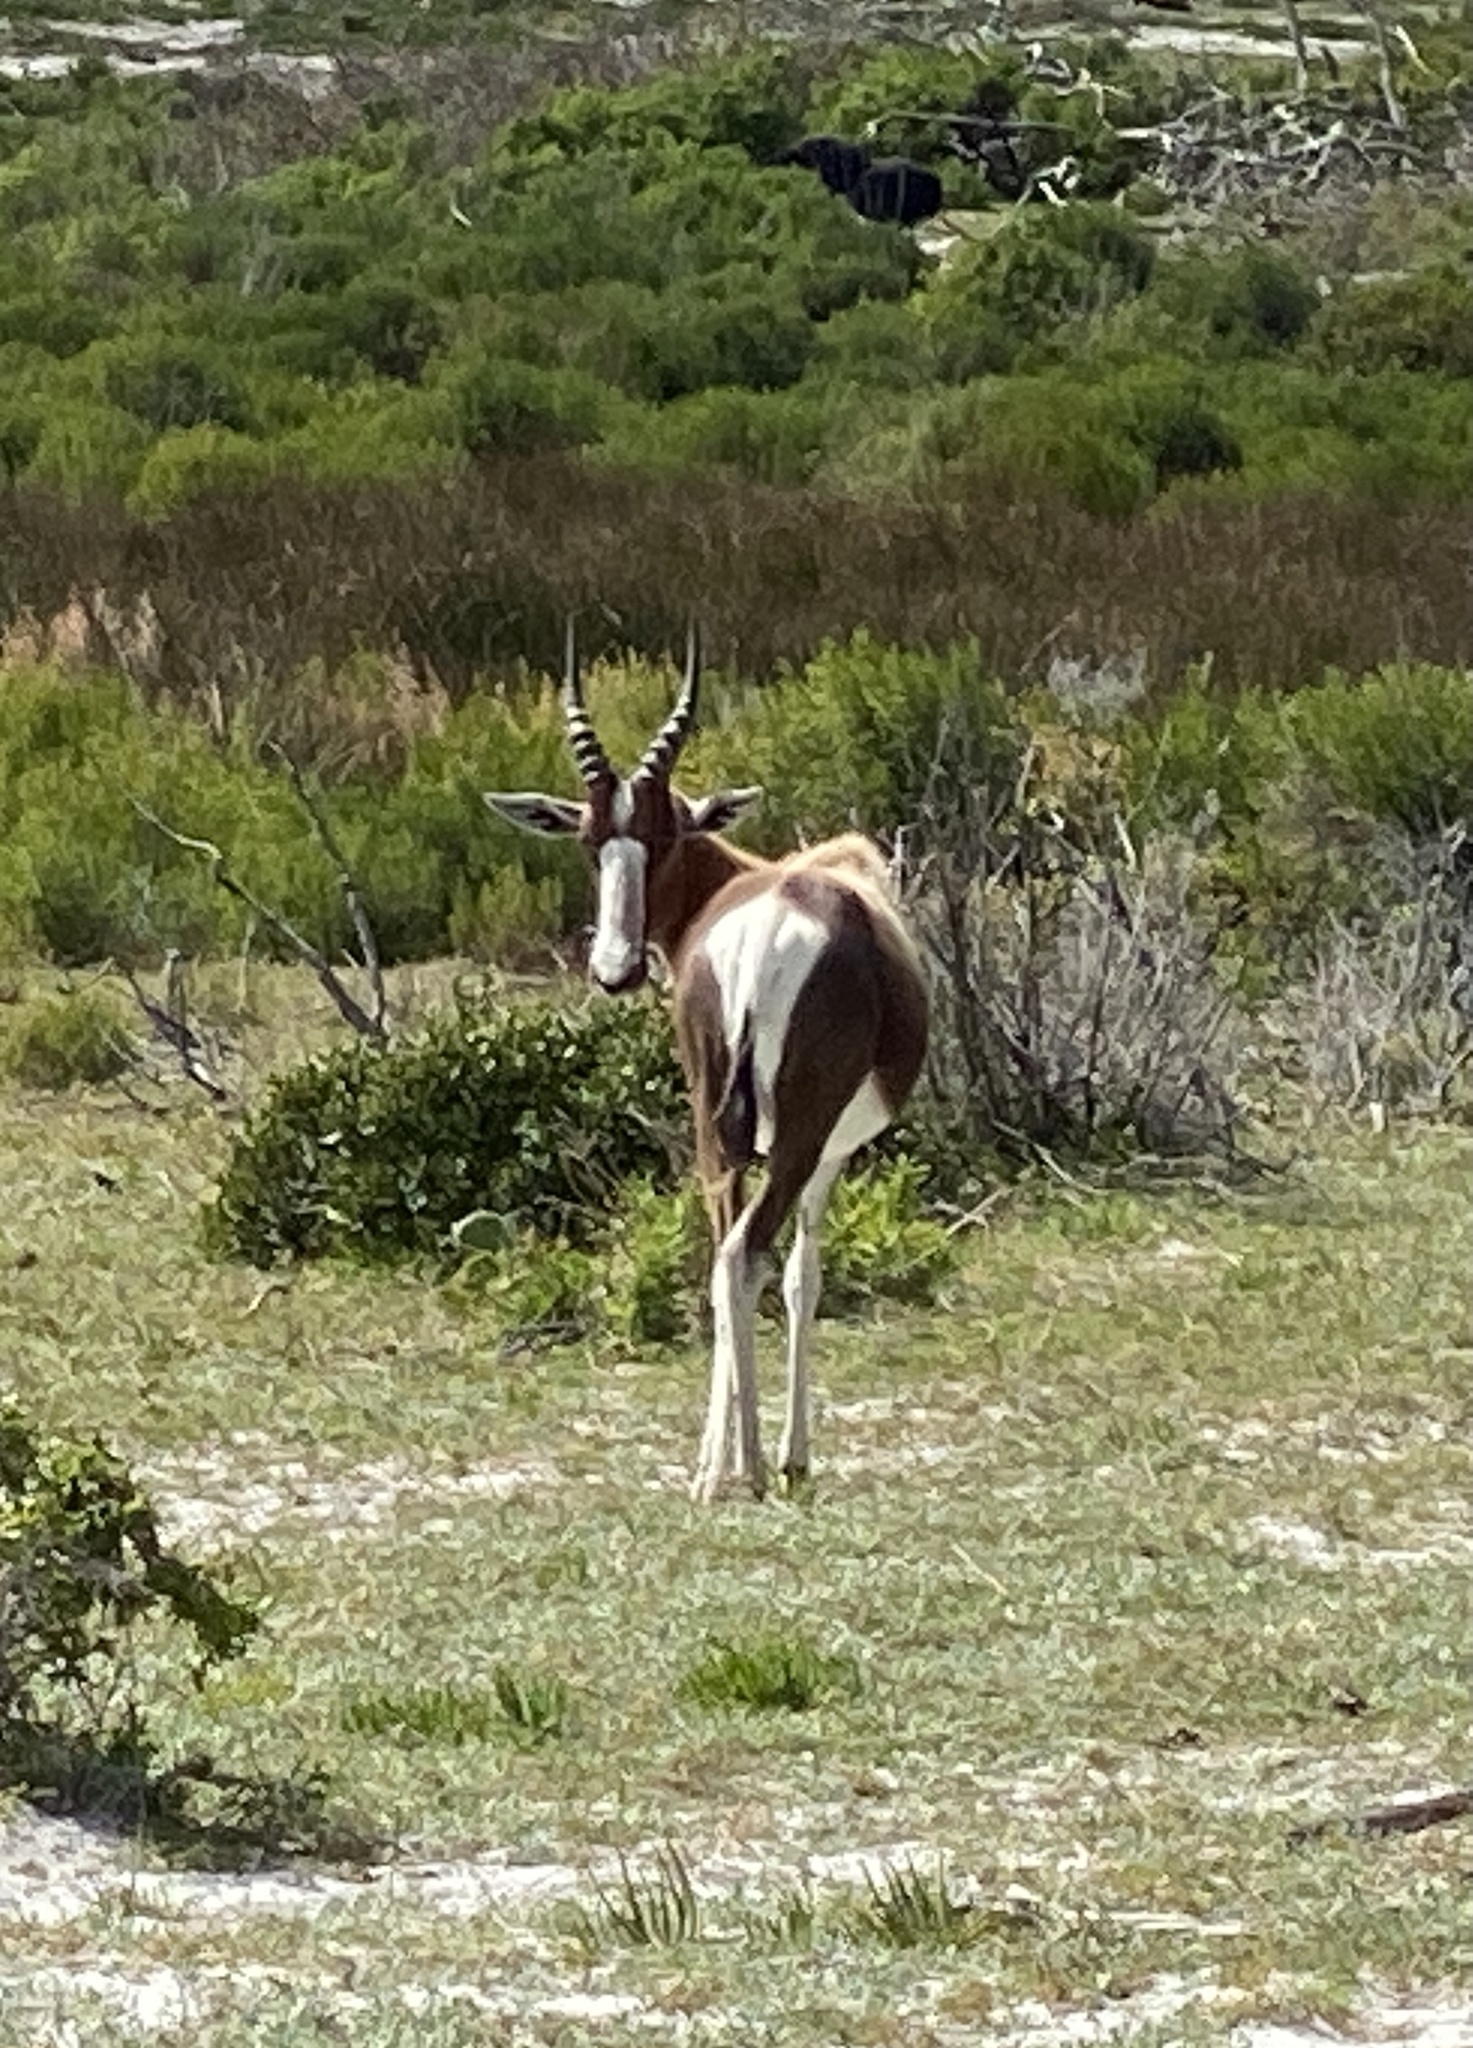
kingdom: Animalia
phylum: Chordata
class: Mammalia
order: Artiodactyla
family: Bovidae
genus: Damaliscus
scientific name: Damaliscus pygargus
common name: Bontebok
